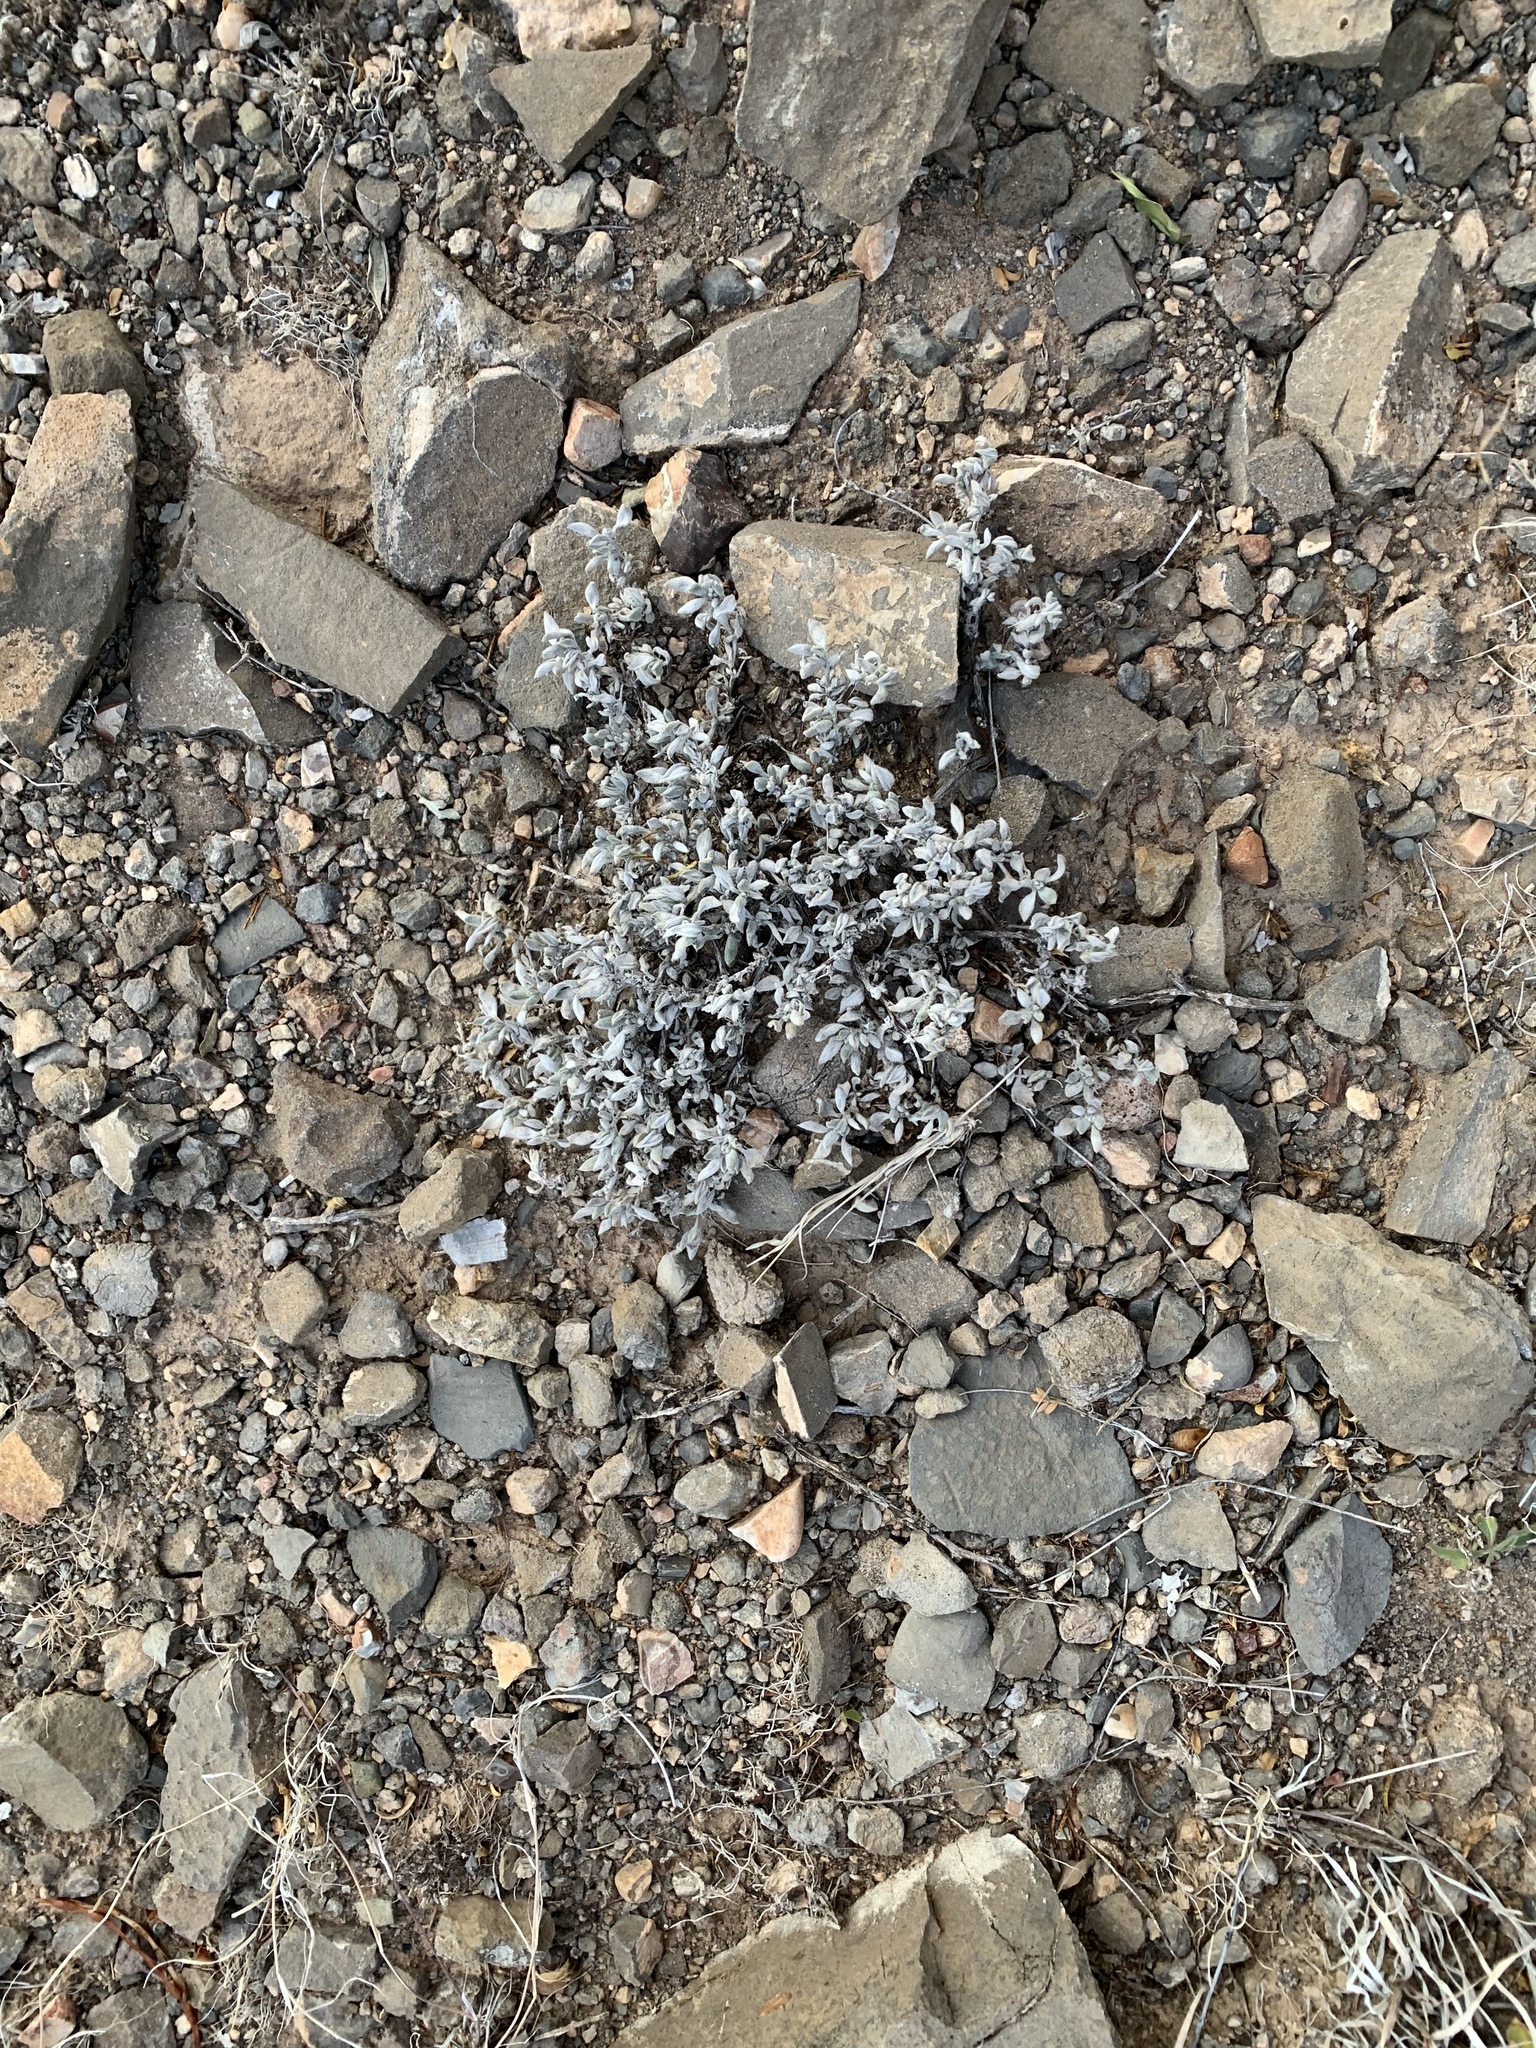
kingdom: Plantae
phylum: Tracheophyta
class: Magnoliopsida
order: Boraginales
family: Ehretiaceae
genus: Tiquilia
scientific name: Tiquilia canescens
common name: Hairy tiquilia
